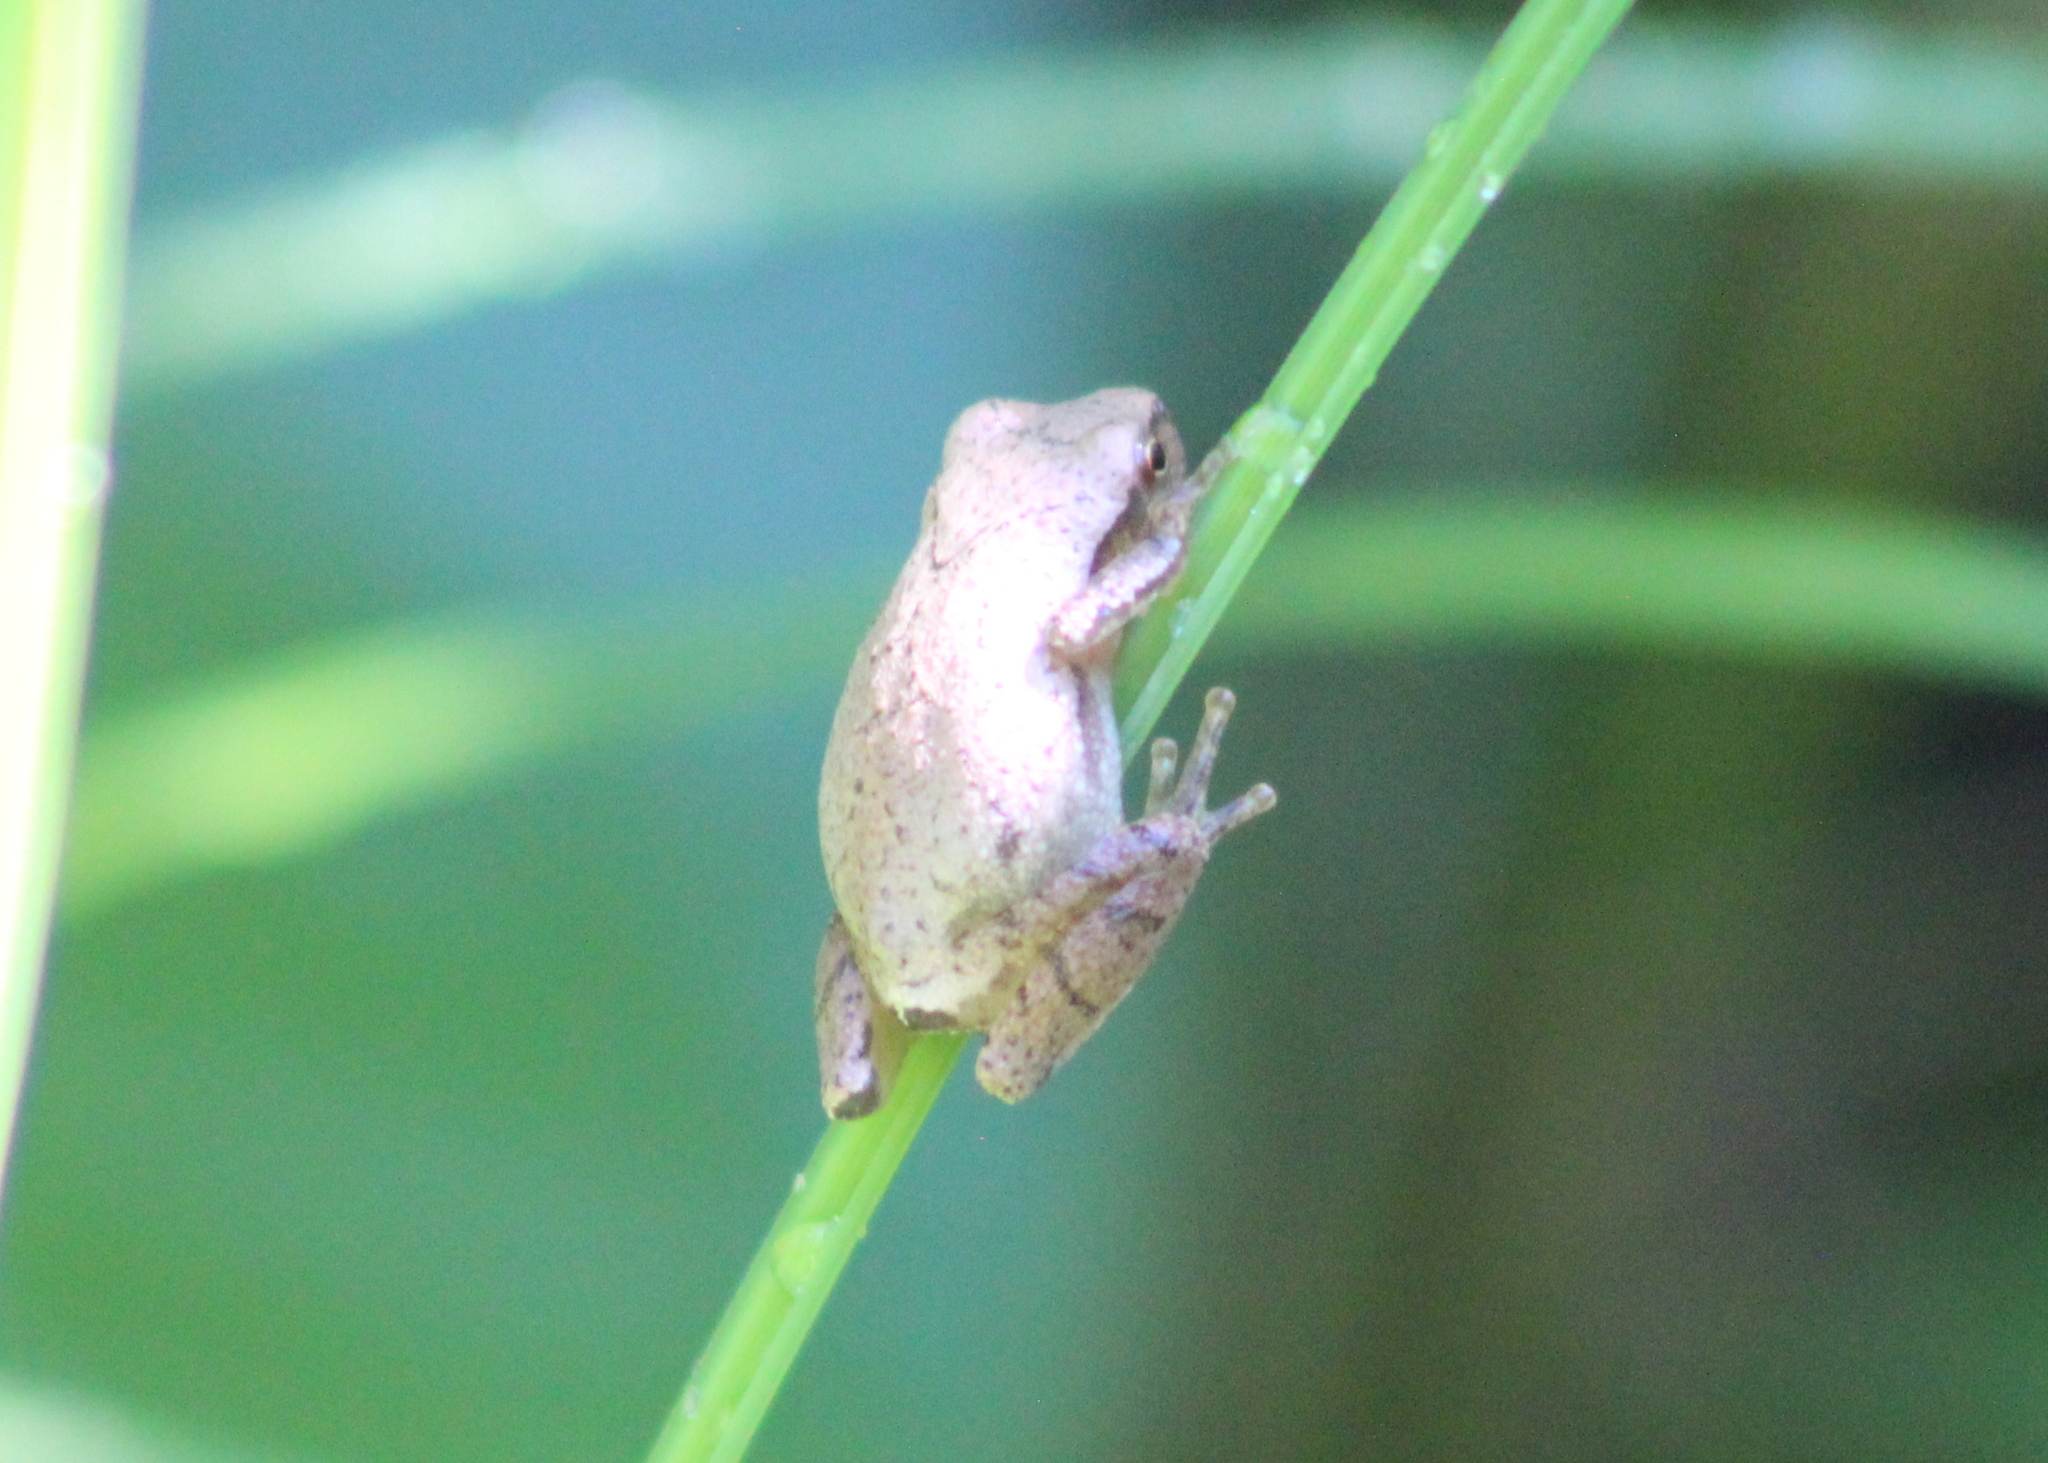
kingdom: Animalia
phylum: Chordata
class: Amphibia
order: Anura
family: Hylidae
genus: Pseudacris
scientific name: Pseudacris crucifer
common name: Spring peeper
